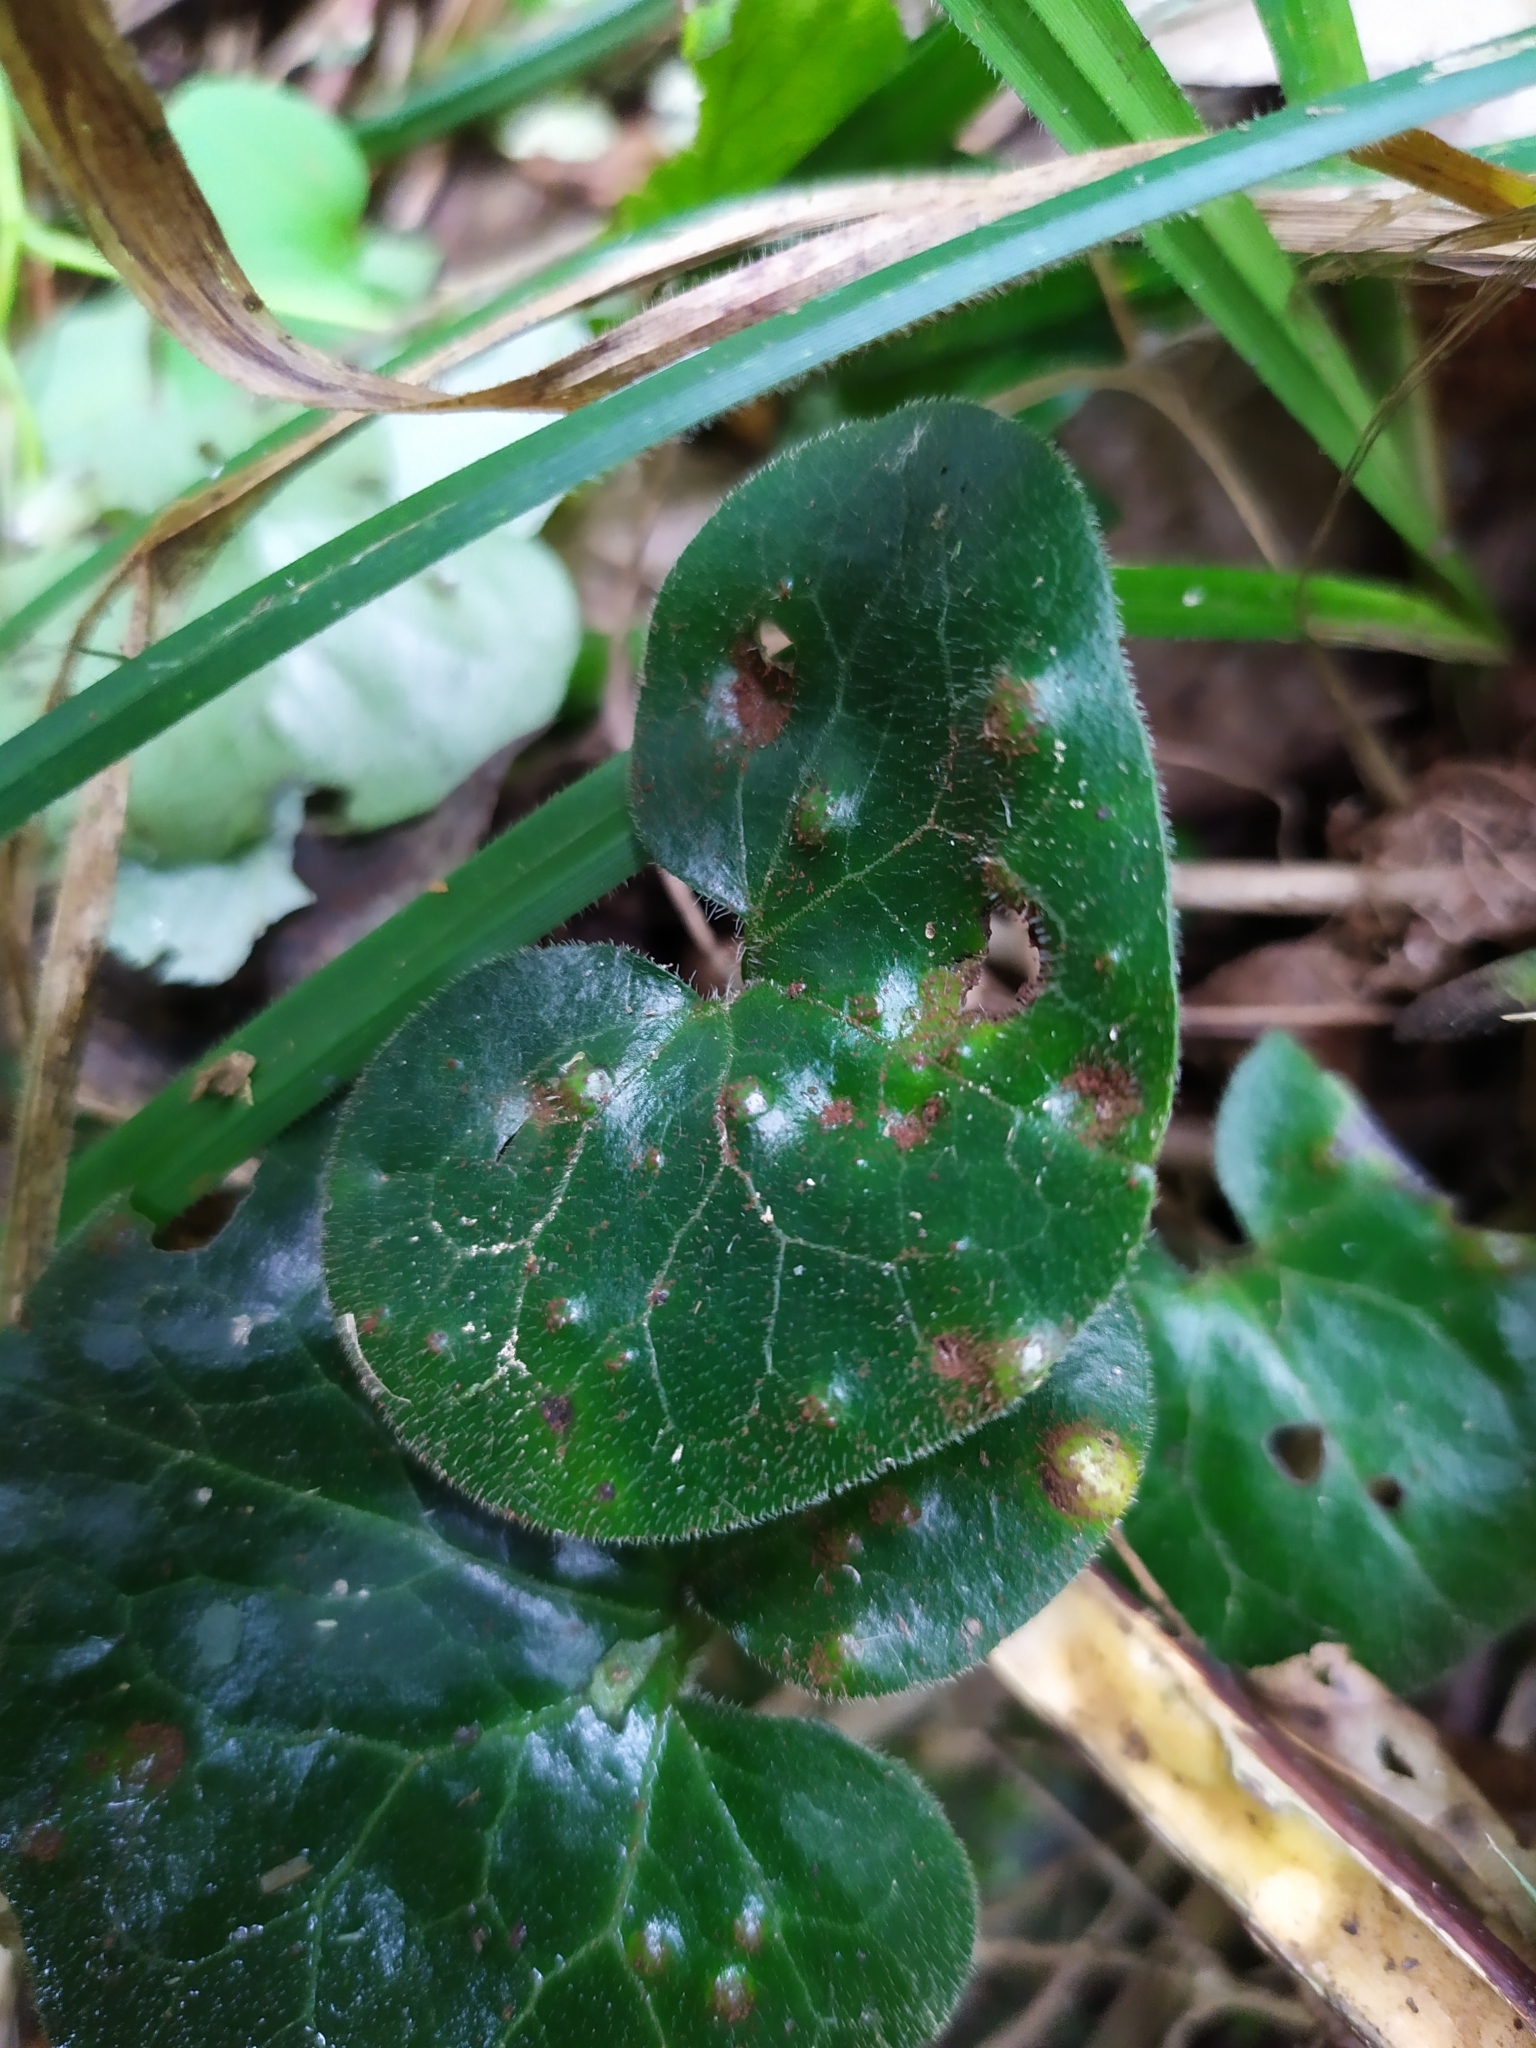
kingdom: Fungi
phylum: Basidiomycota
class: Pucciniomycetes
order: Pucciniales
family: Pucciniaceae
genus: Puccinia
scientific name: Puccinia asarina
